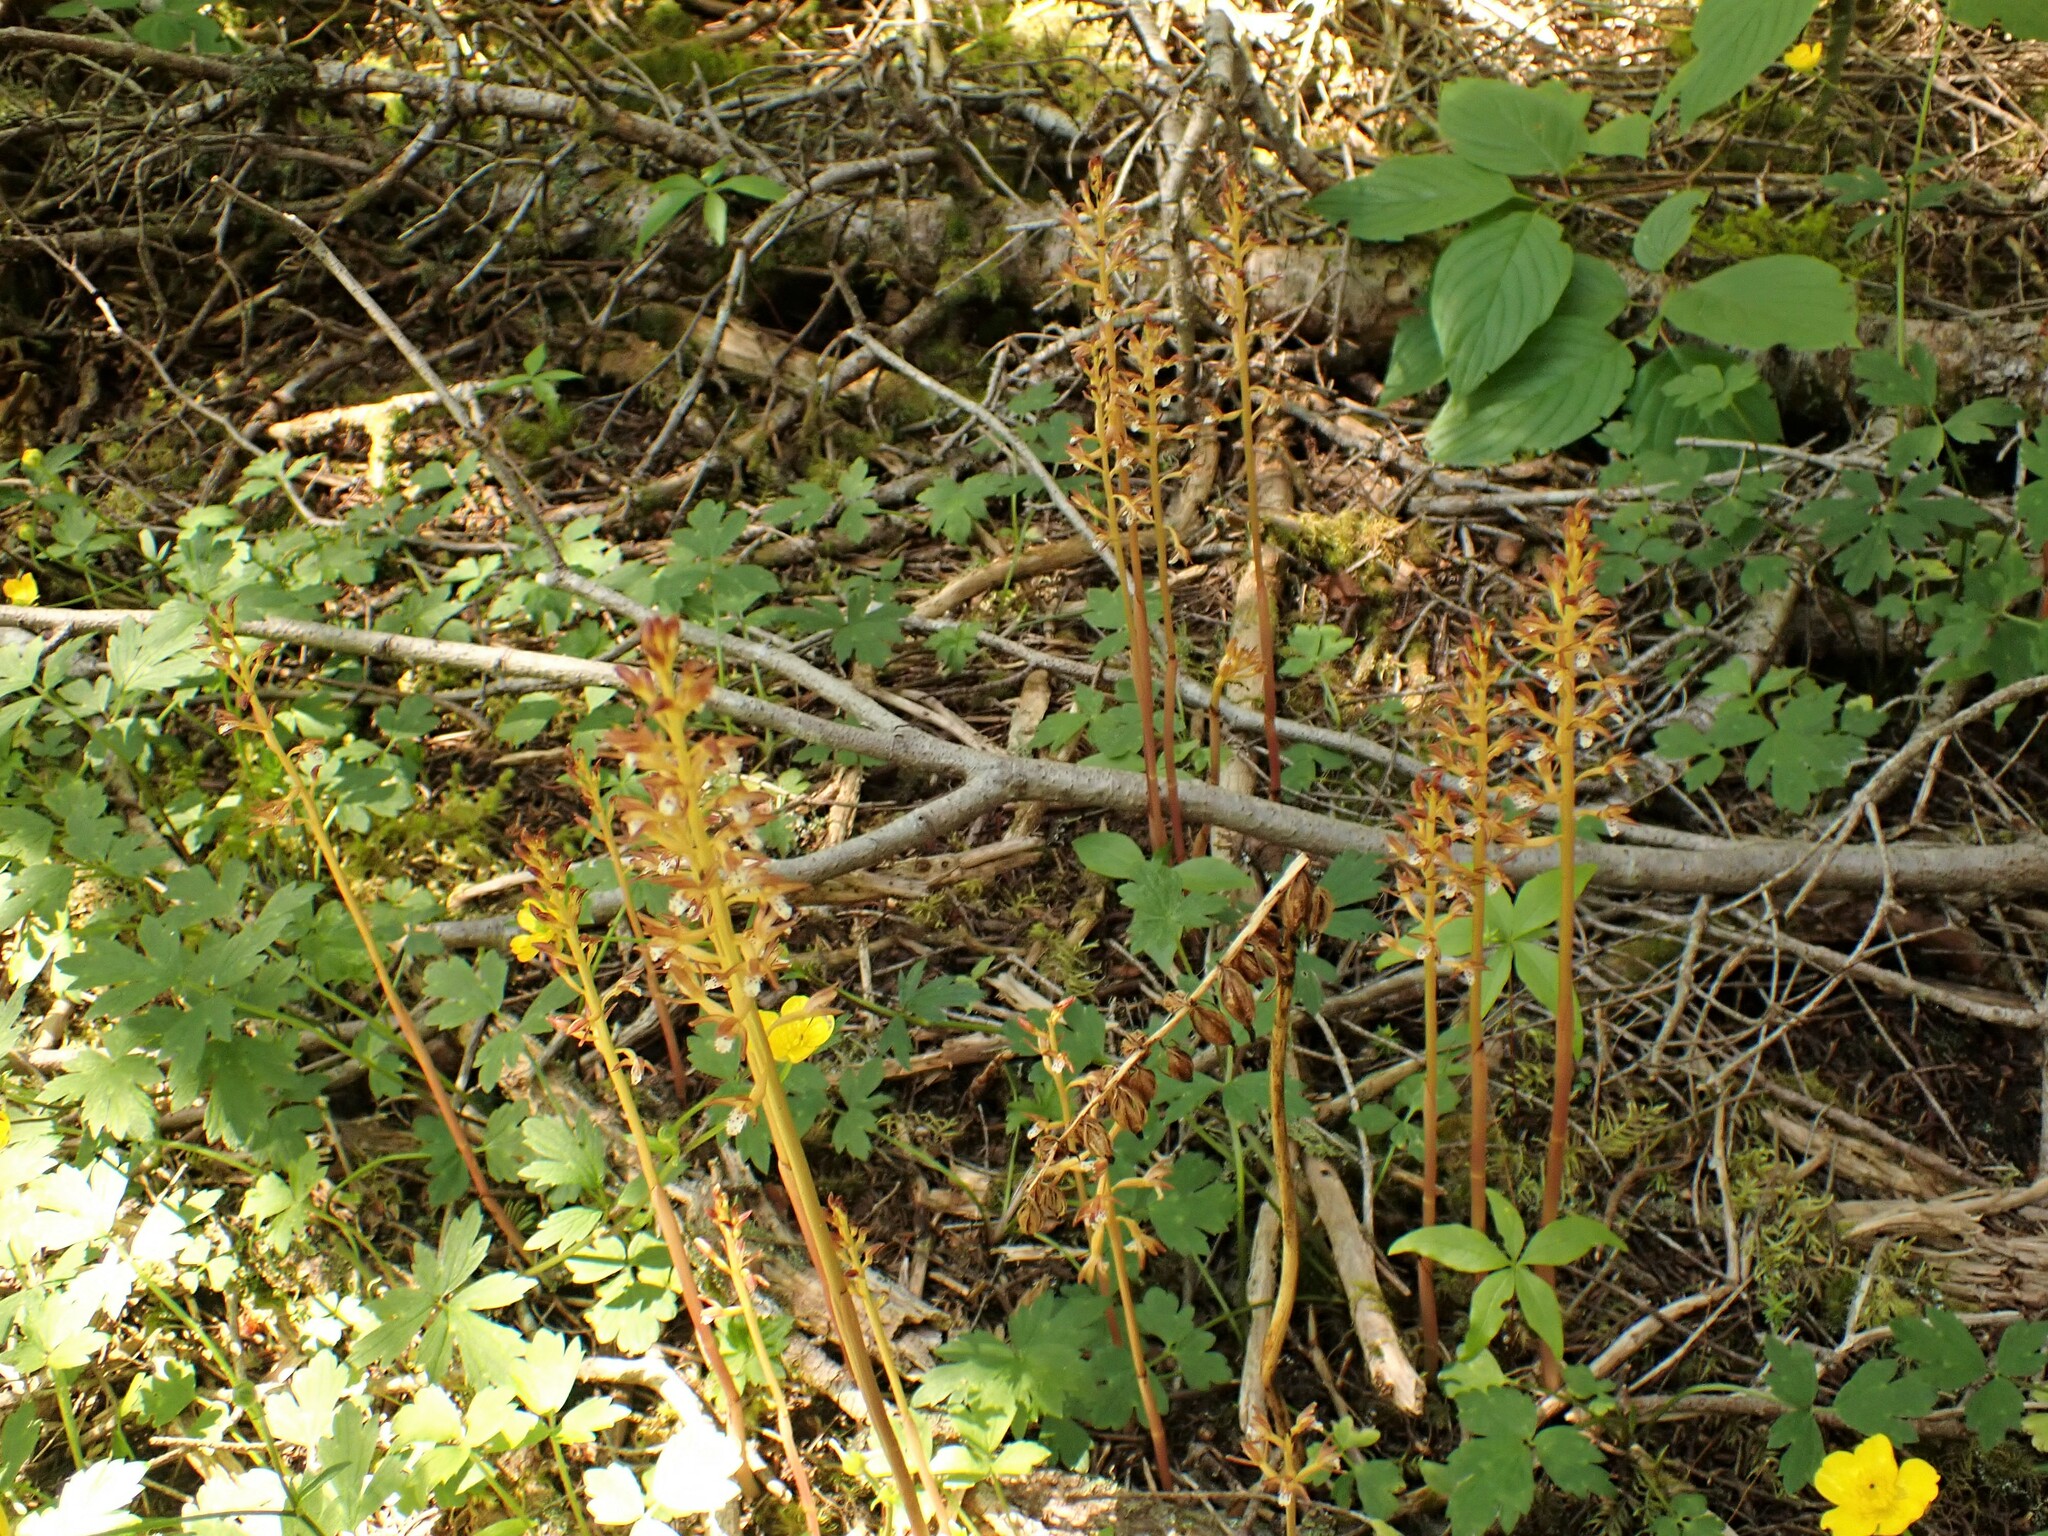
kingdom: Plantae
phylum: Tracheophyta
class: Liliopsida
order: Asparagales
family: Orchidaceae
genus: Corallorhiza
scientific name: Corallorhiza maculata
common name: Spotted coralroot
